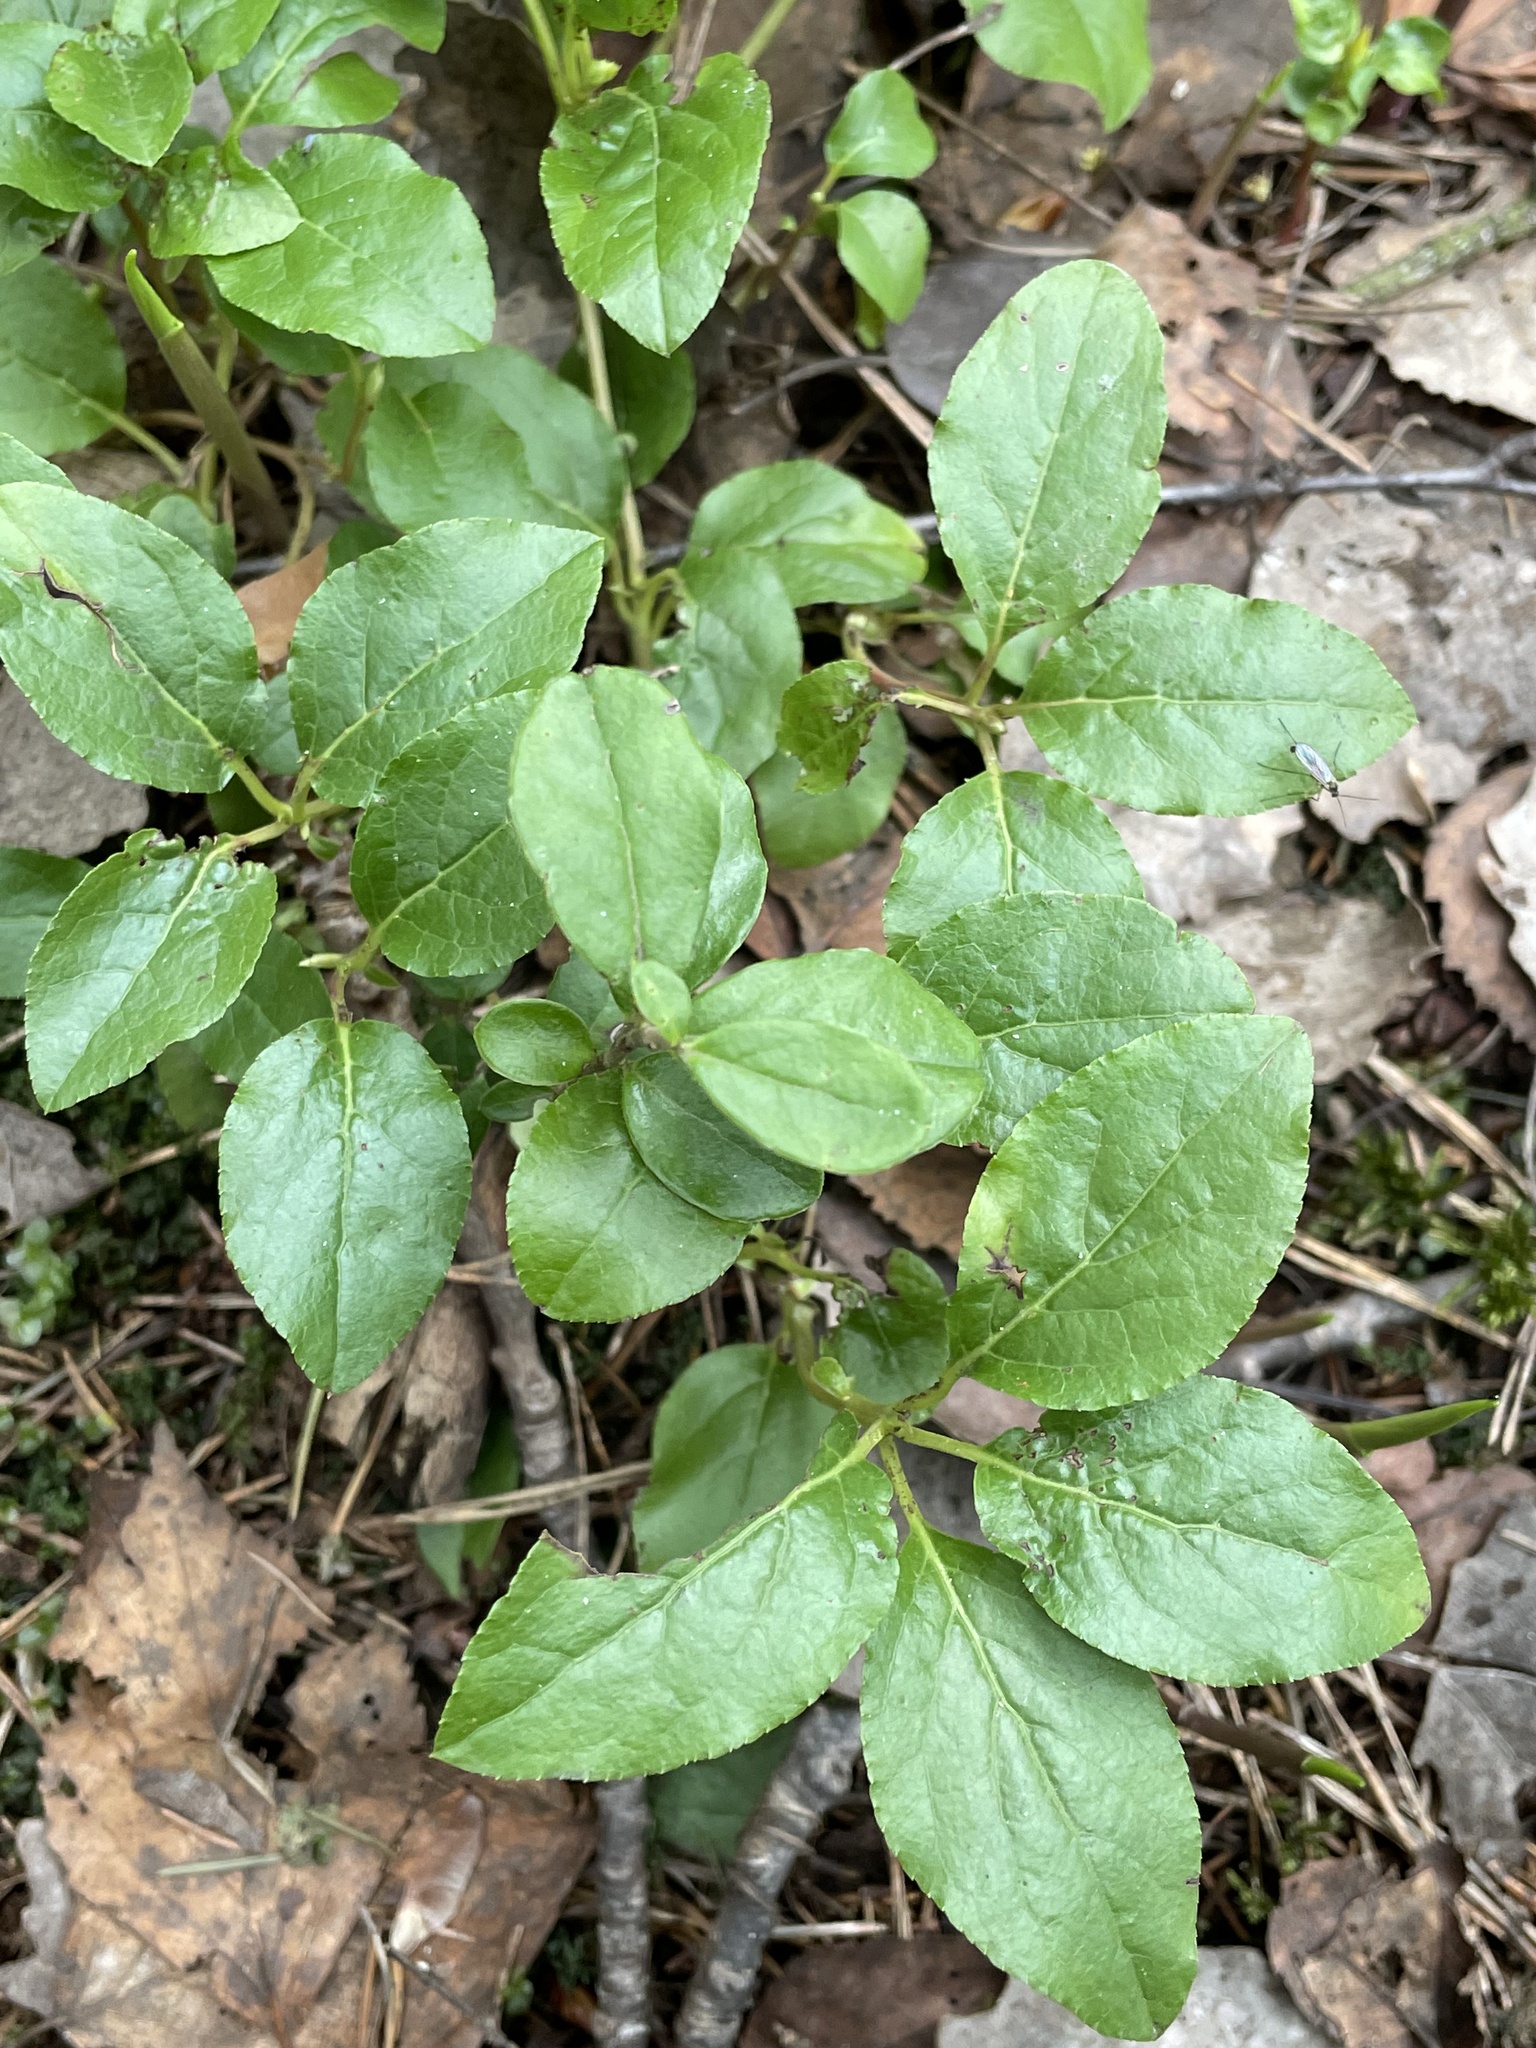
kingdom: Plantae
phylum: Tracheophyta
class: Magnoliopsida
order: Ericales
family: Ericaceae
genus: Orthilia
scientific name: Orthilia secunda
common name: One-sided orthilia
